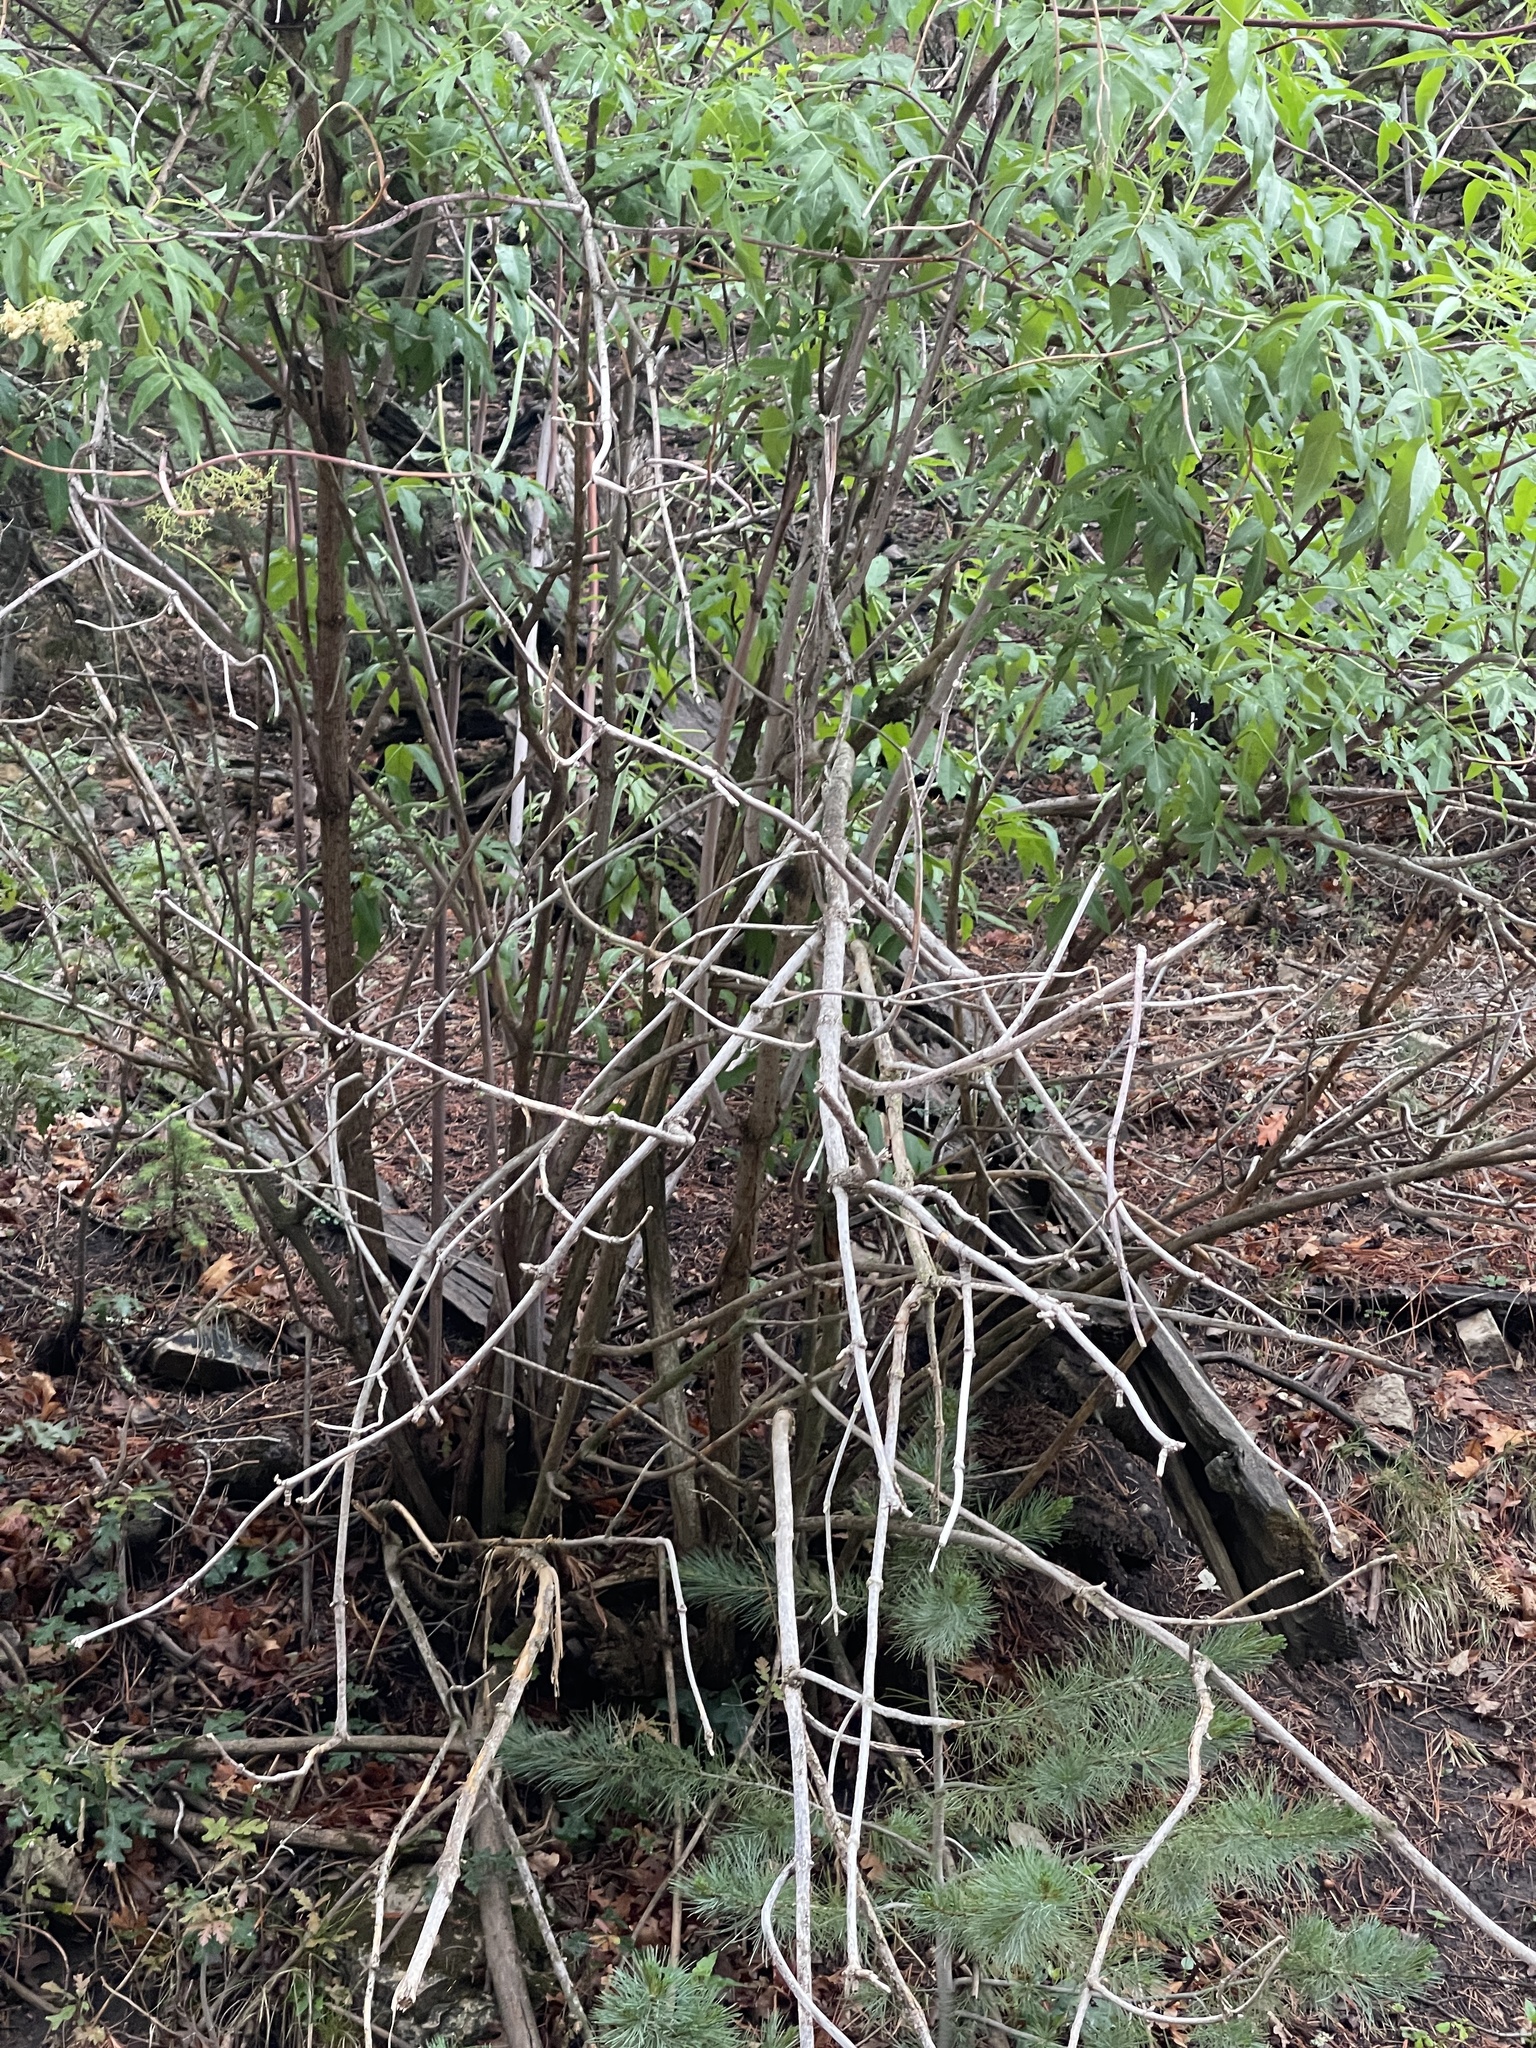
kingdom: Plantae
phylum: Tracheophyta
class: Magnoliopsida
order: Dipsacales
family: Viburnaceae
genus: Sambucus
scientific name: Sambucus cerulea
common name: Blue elder
